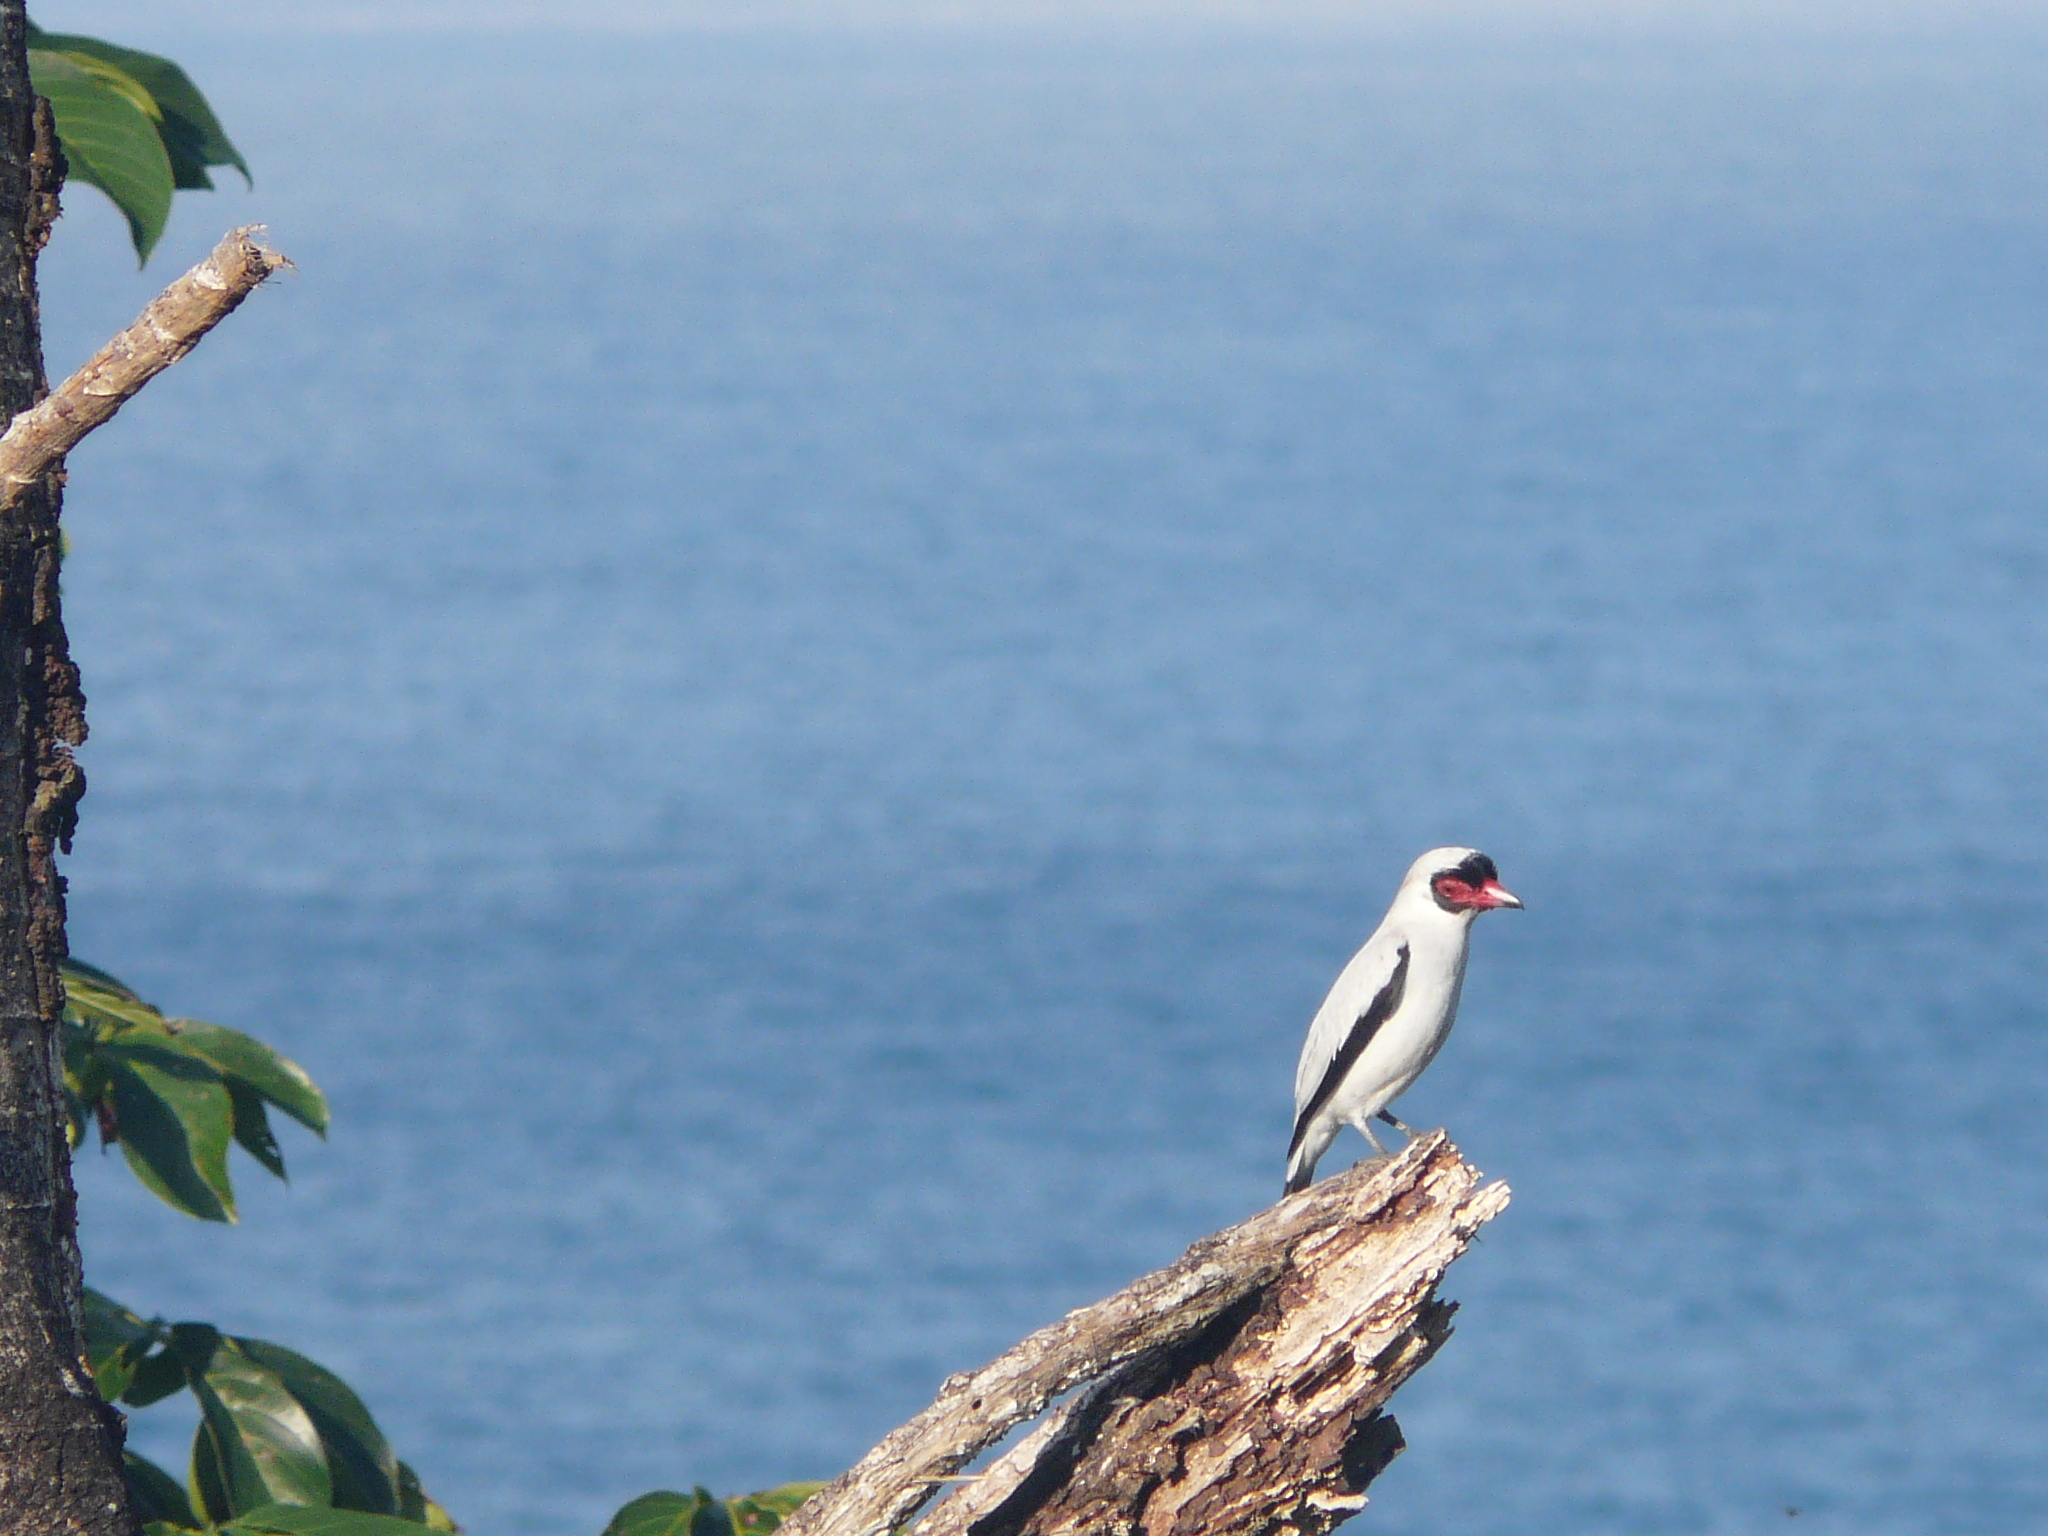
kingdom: Animalia
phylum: Chordata
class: Aves
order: Passeriformes
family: Cotingidae
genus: Tityra
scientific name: Tityra semifasciata
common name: Masked tityra
